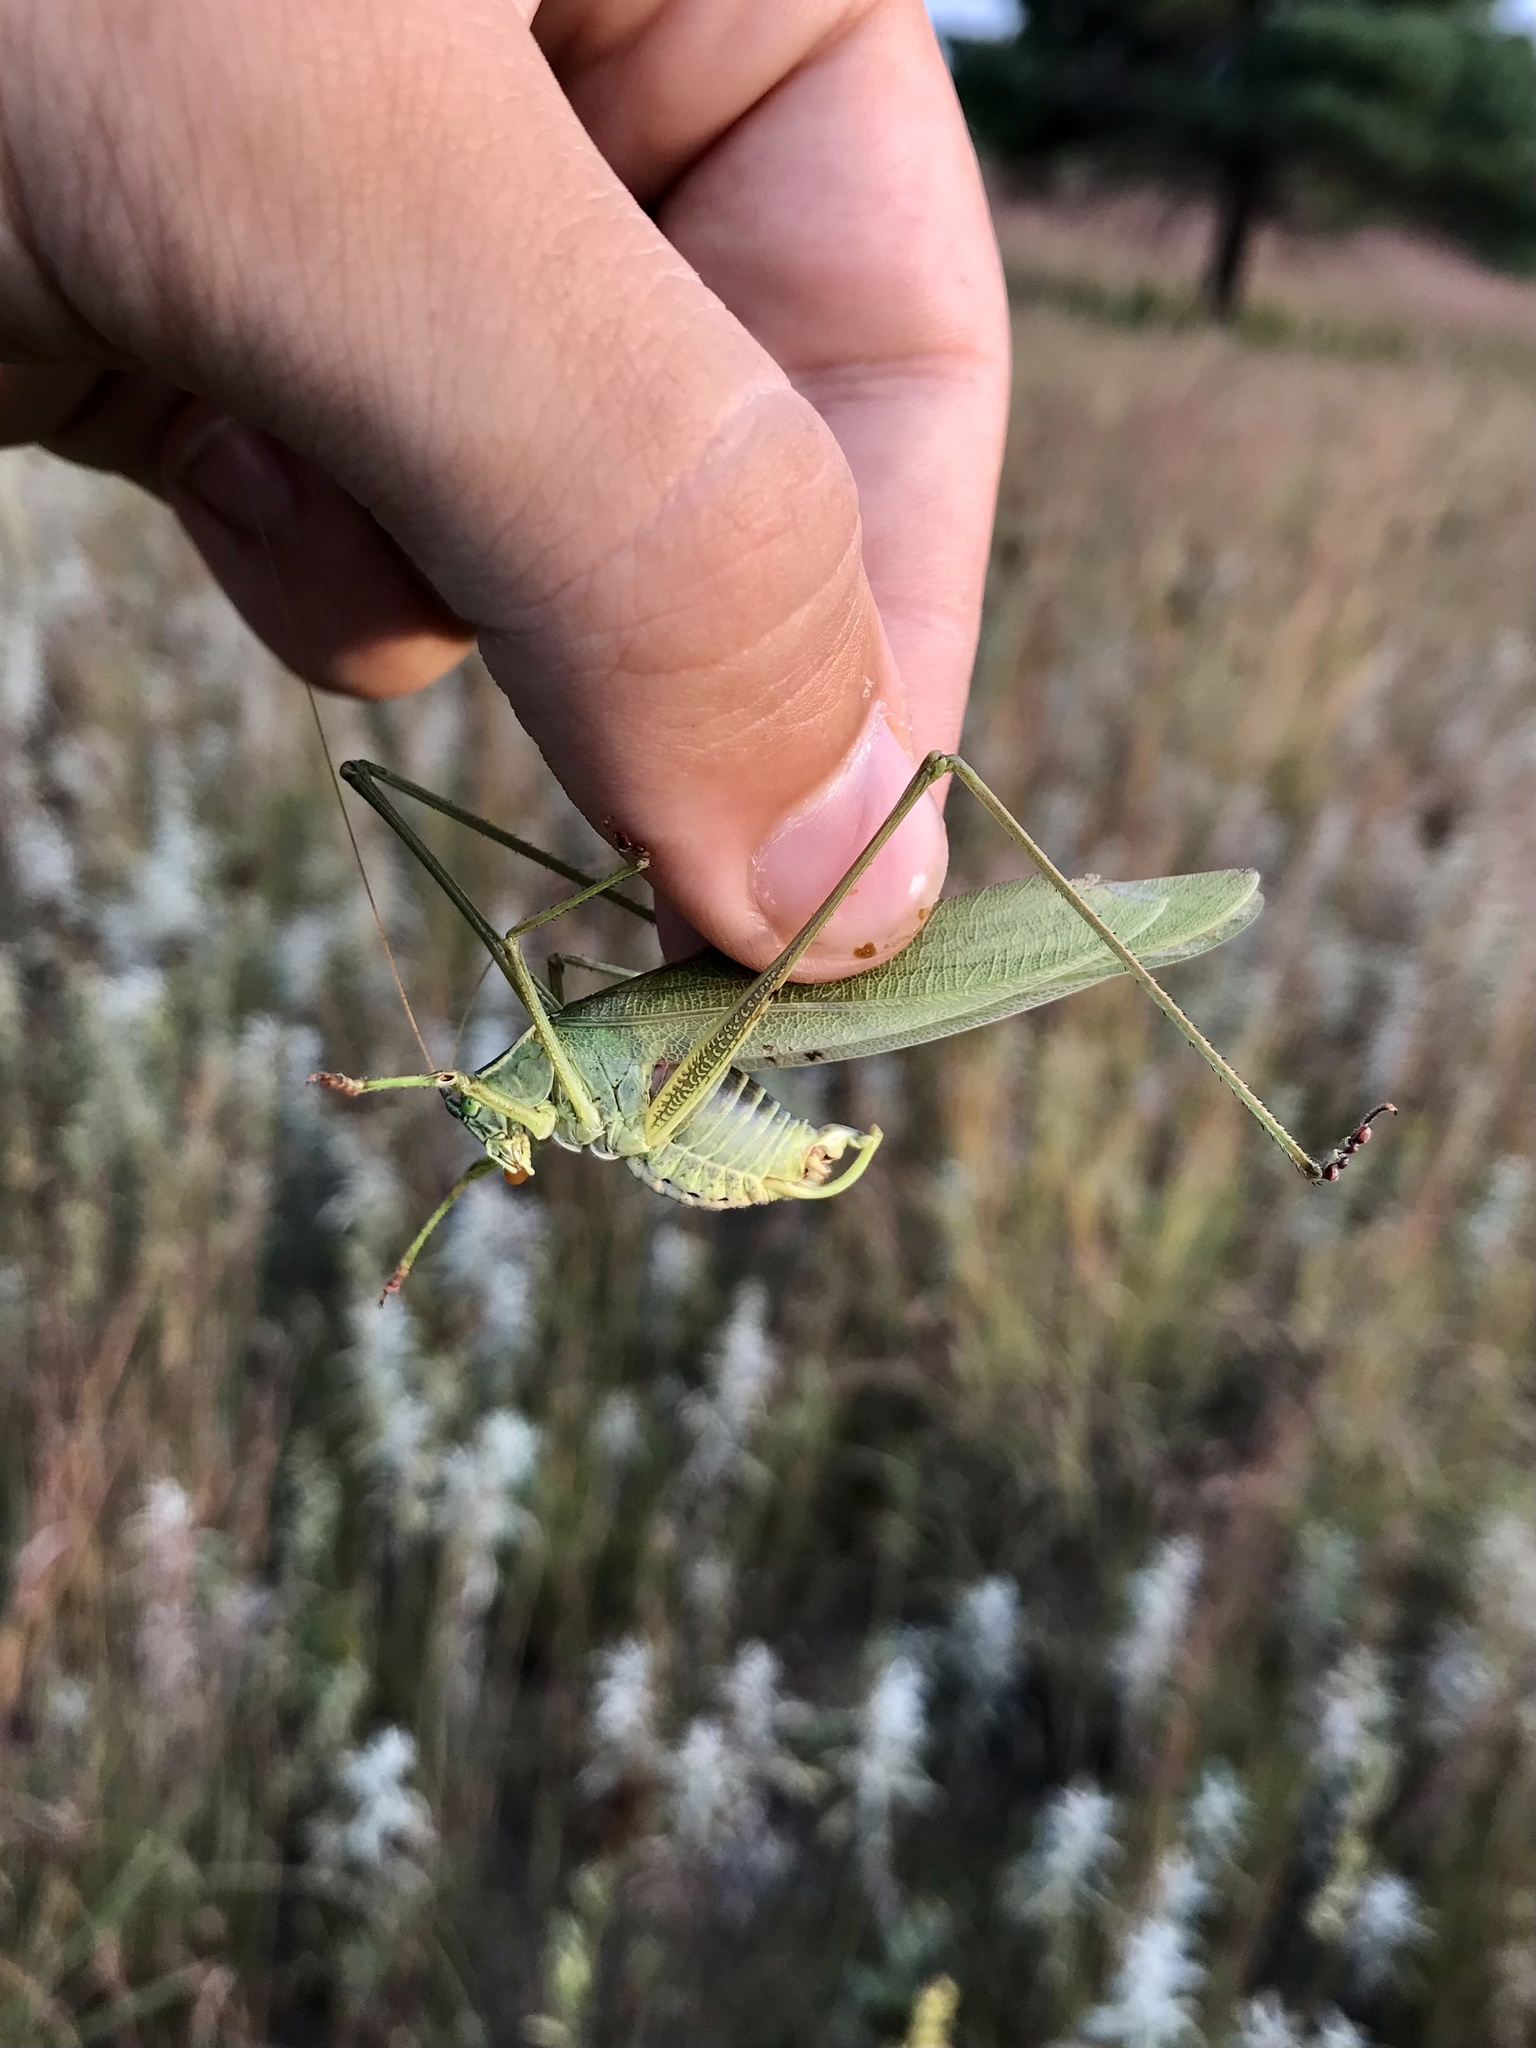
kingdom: Animalia
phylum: Arthropoda
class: Insecta
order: Orthoptera
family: Tettigoniidae
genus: Scudderia
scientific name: Scudderia texensis
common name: Texas bush katydid
